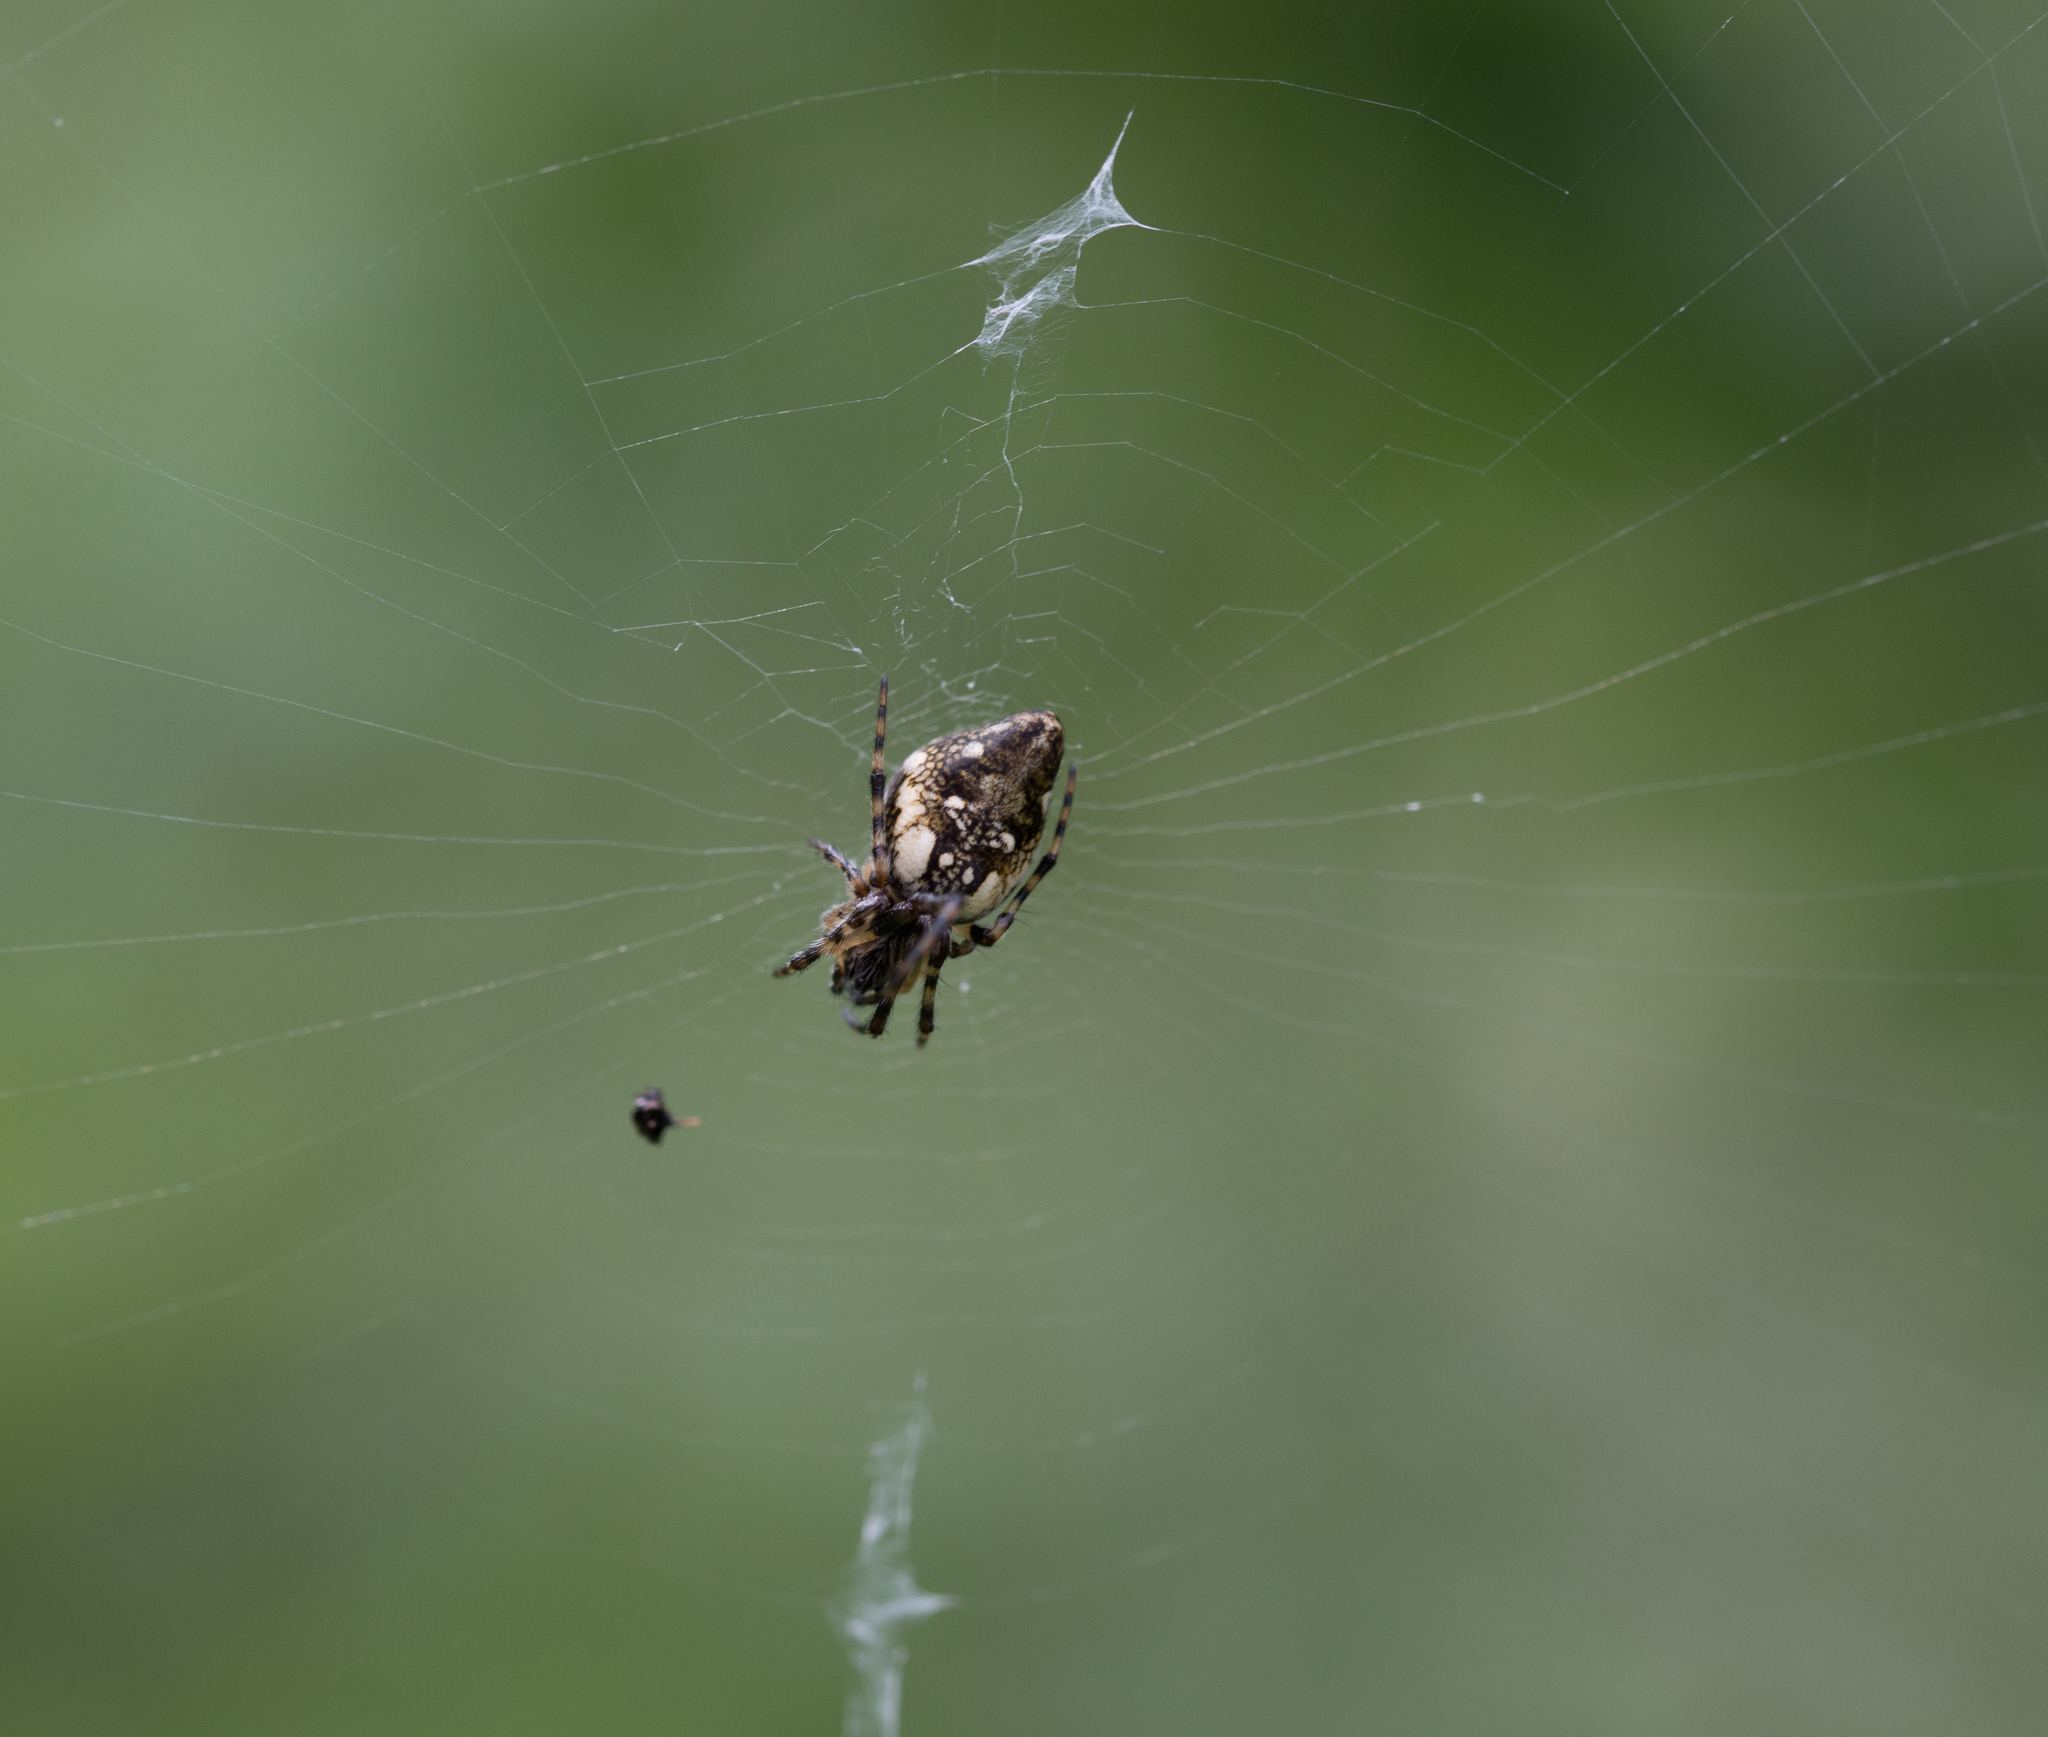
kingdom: Animalia
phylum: Arthropoda
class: Arachnida
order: Araneae
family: Araneidae
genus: Cyclosa
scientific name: Cyclosa conica
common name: Conical trashline orbweaver
